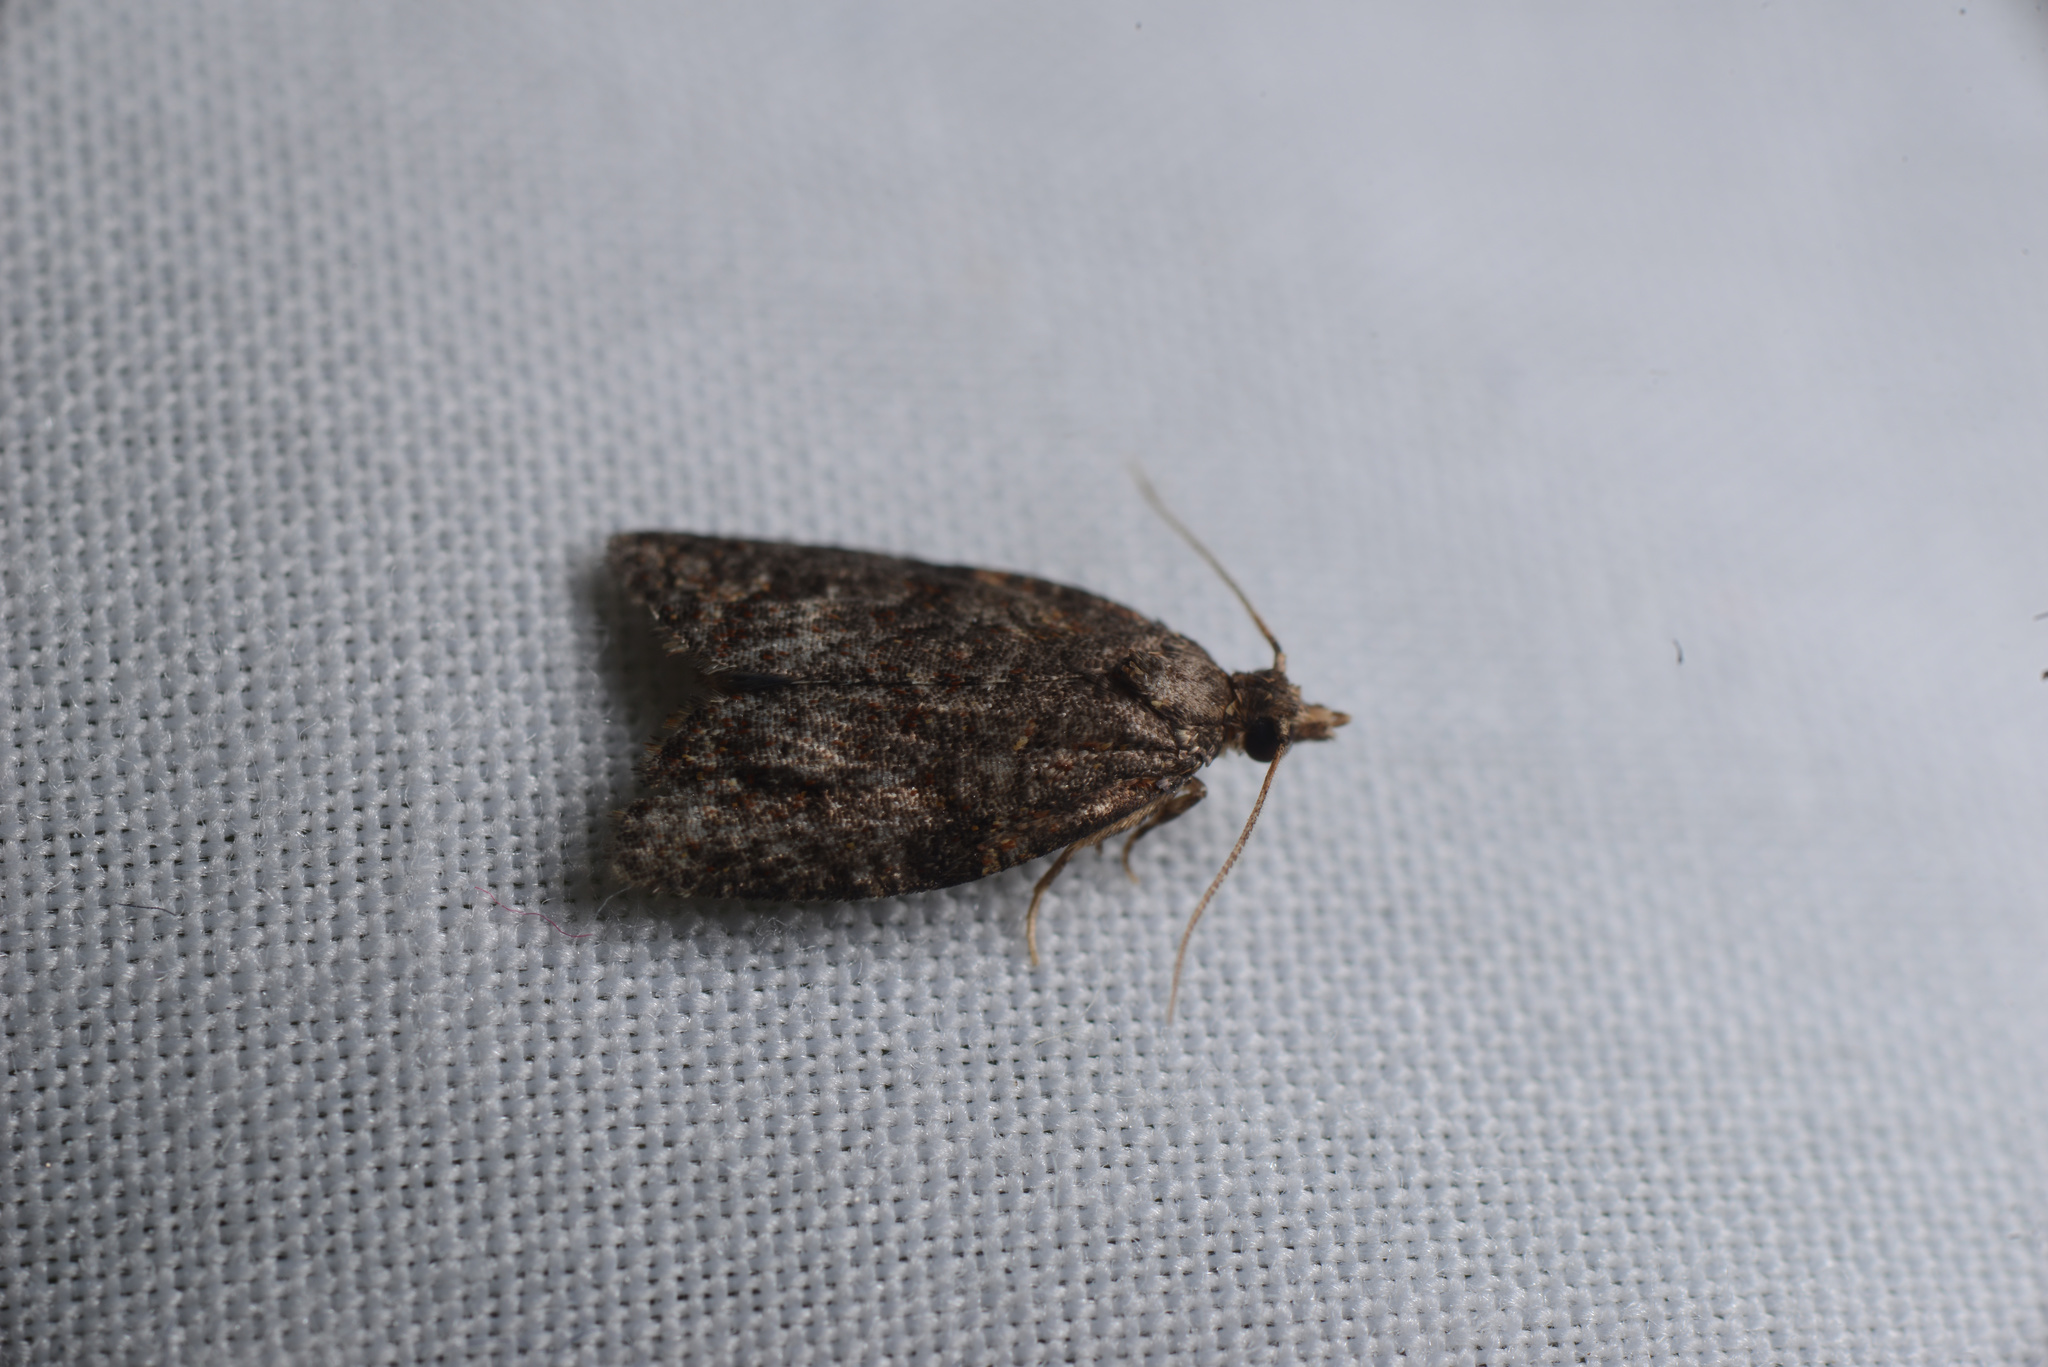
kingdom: Animalia
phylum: Arthropoda
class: Insecta
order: Lepidoptera
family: Tortricidae
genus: Capua
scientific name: Capua intractana
